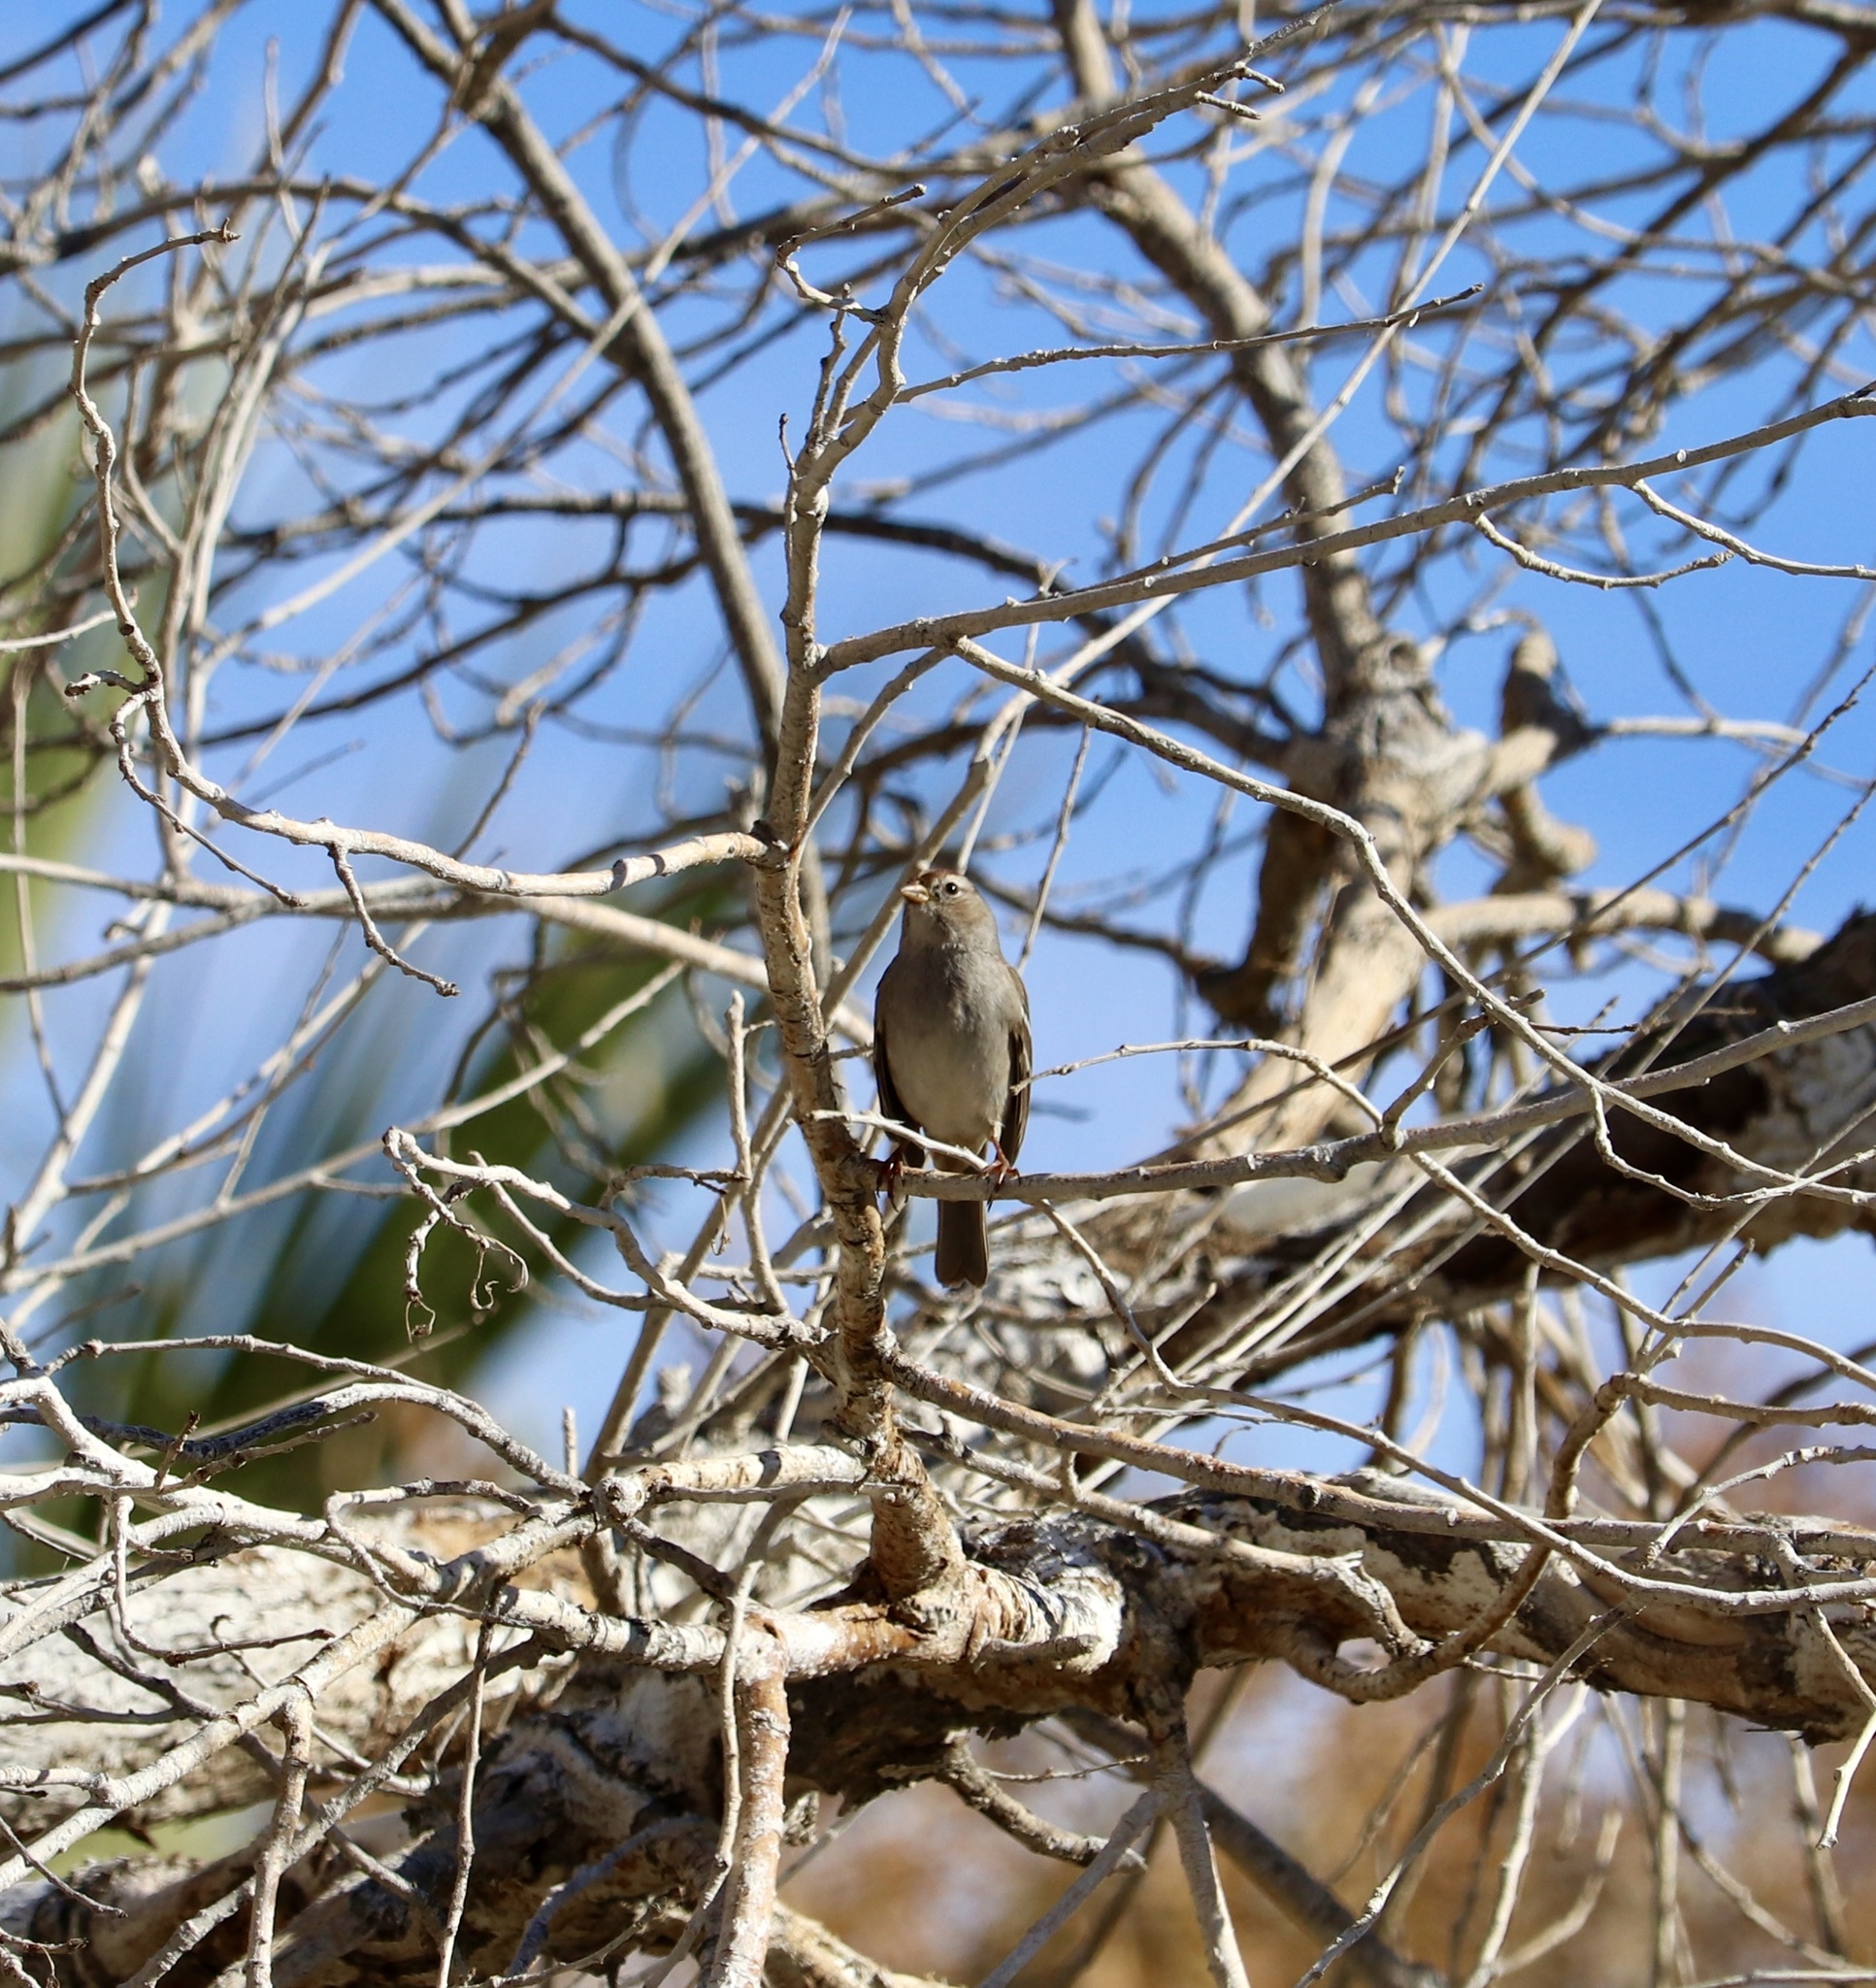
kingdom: Animalia
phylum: Chordata
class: Aves
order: Passeriformes
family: Passerellidae
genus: Zonotrichia
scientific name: Zonotrichia leucophrys
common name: White-crowned sparrow
